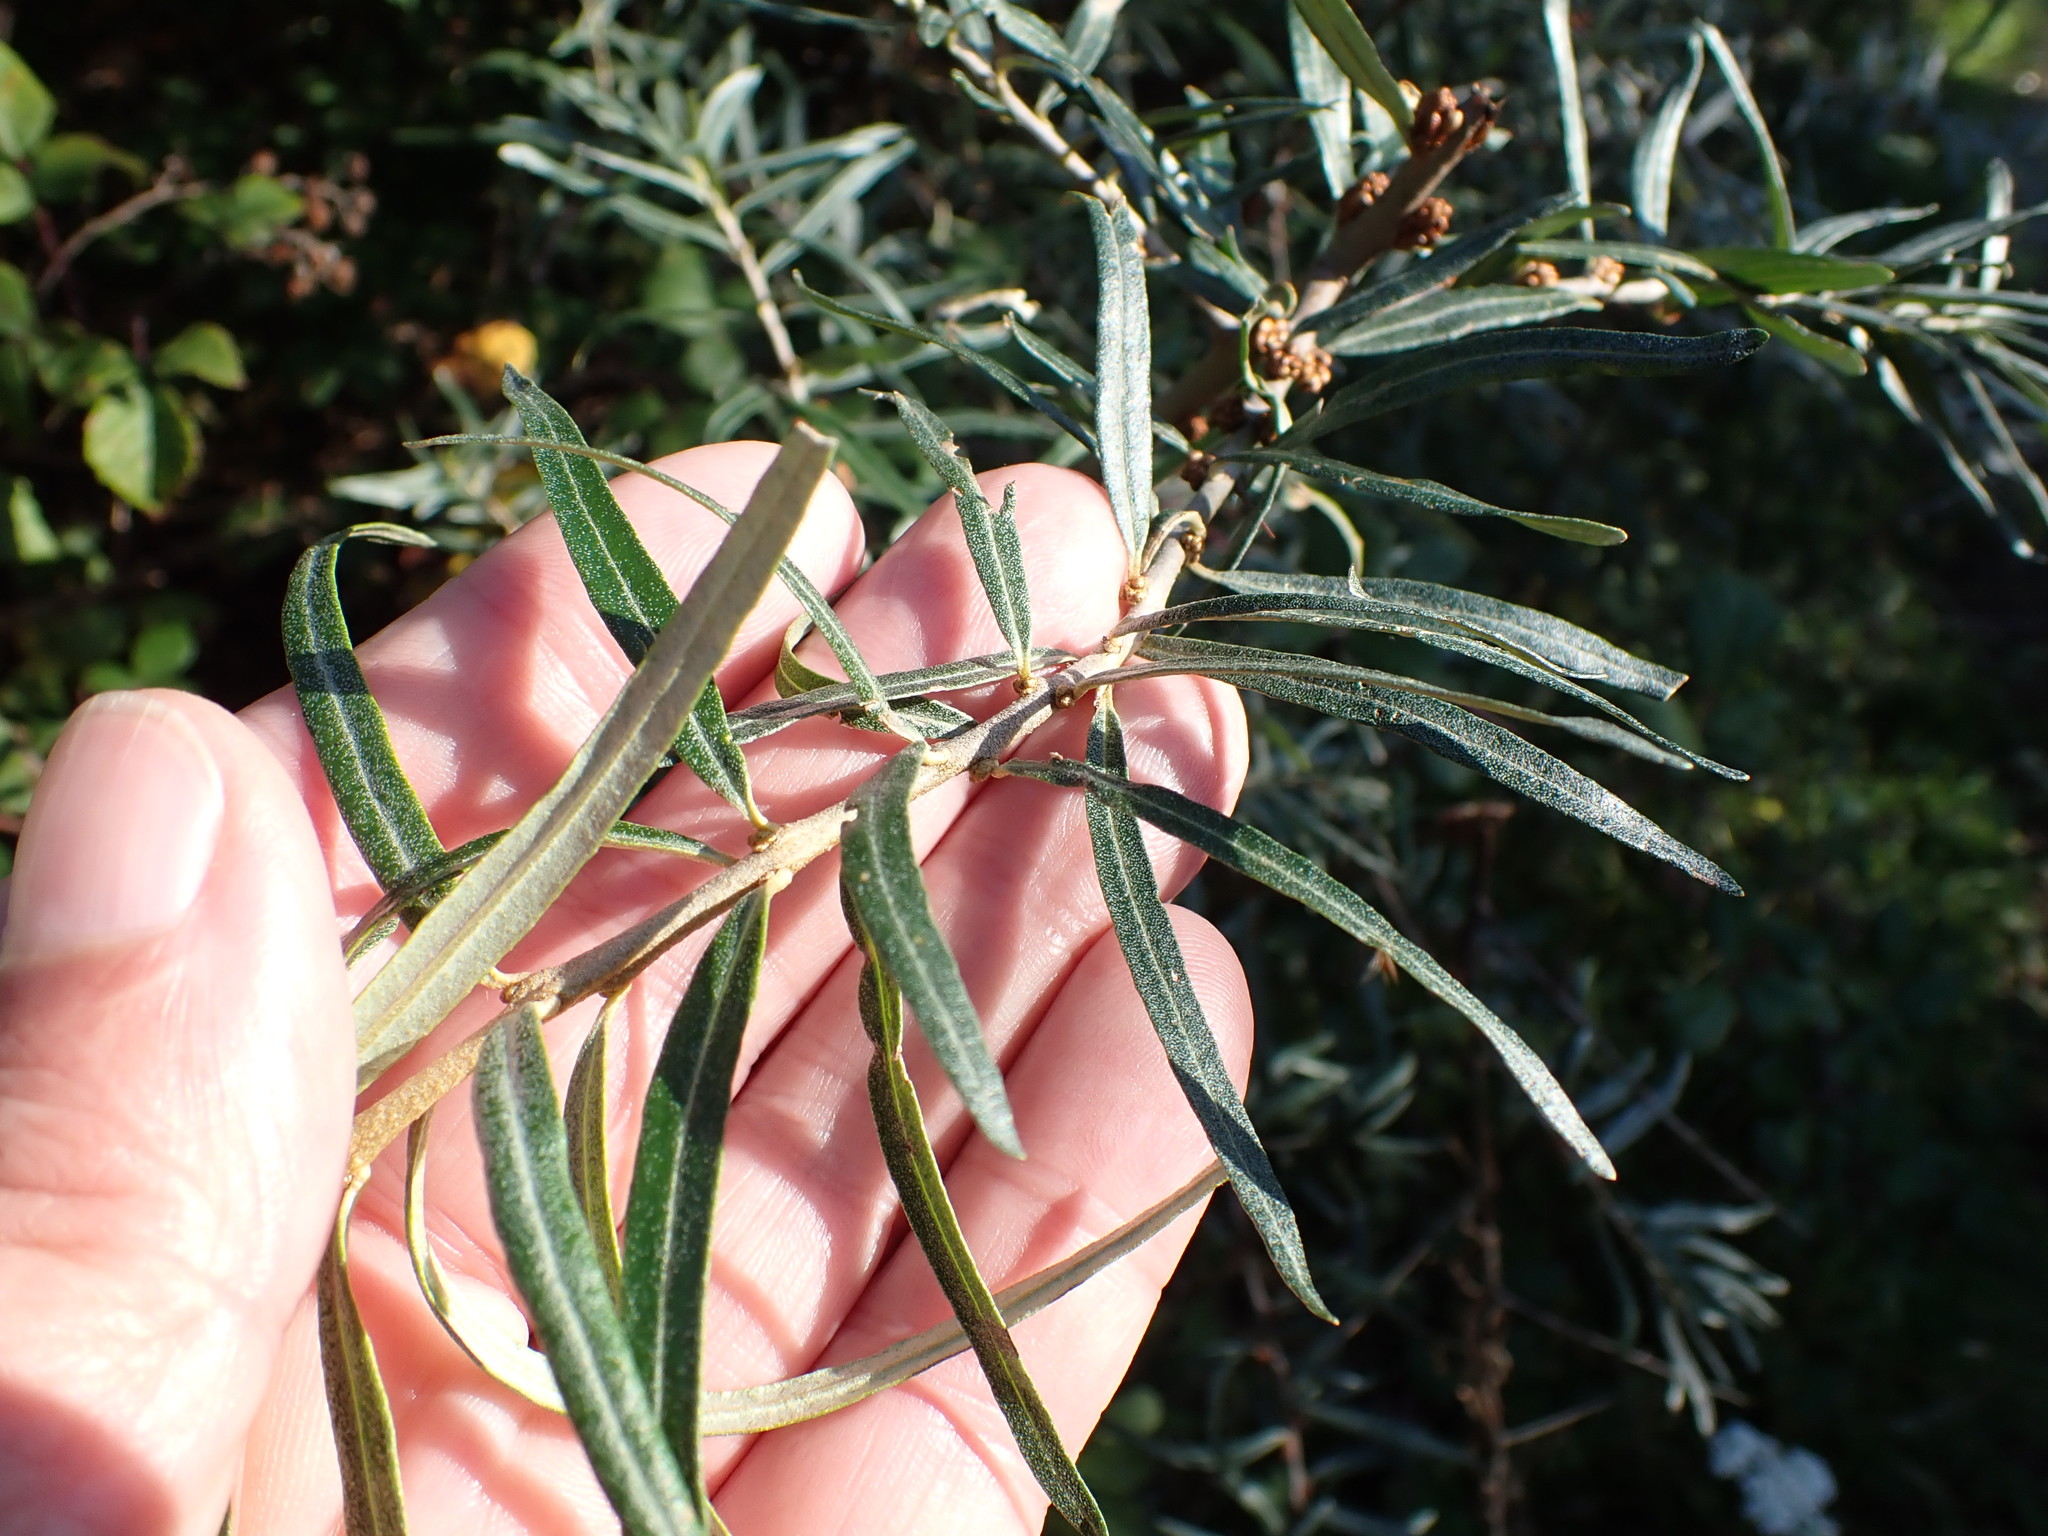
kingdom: Plantae
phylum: Tracheophyta
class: Magnoliopsida
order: Rosales
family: Elaeagnaceae
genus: Hippophae
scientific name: Hippophae rhamnoides
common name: Sea-buckthorn
